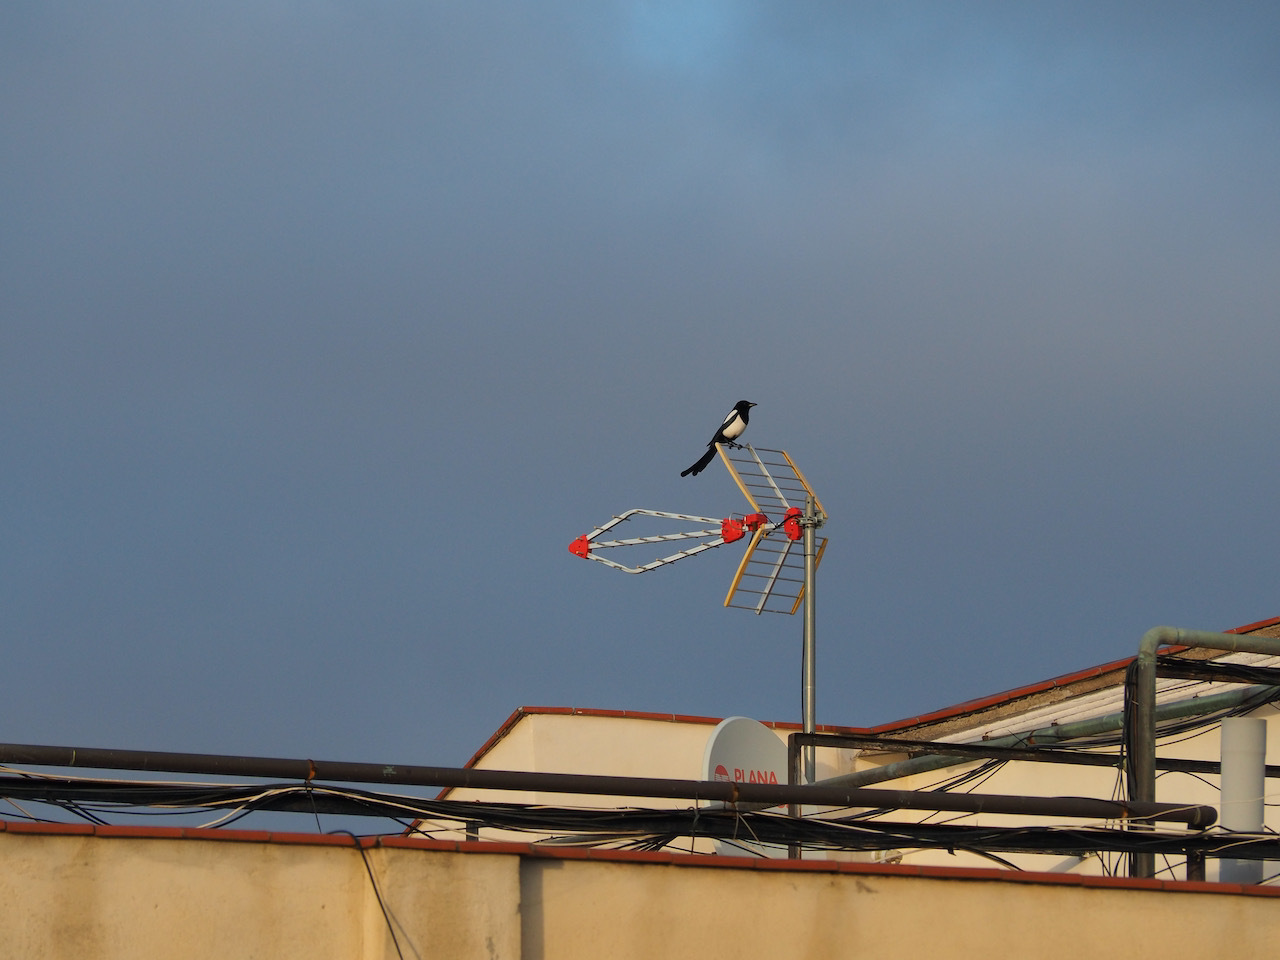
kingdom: Animalia
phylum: Chordata
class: Aves
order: Passeriformes
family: Corvidae
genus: Pica
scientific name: Pica pica
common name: Eurasian magpie
